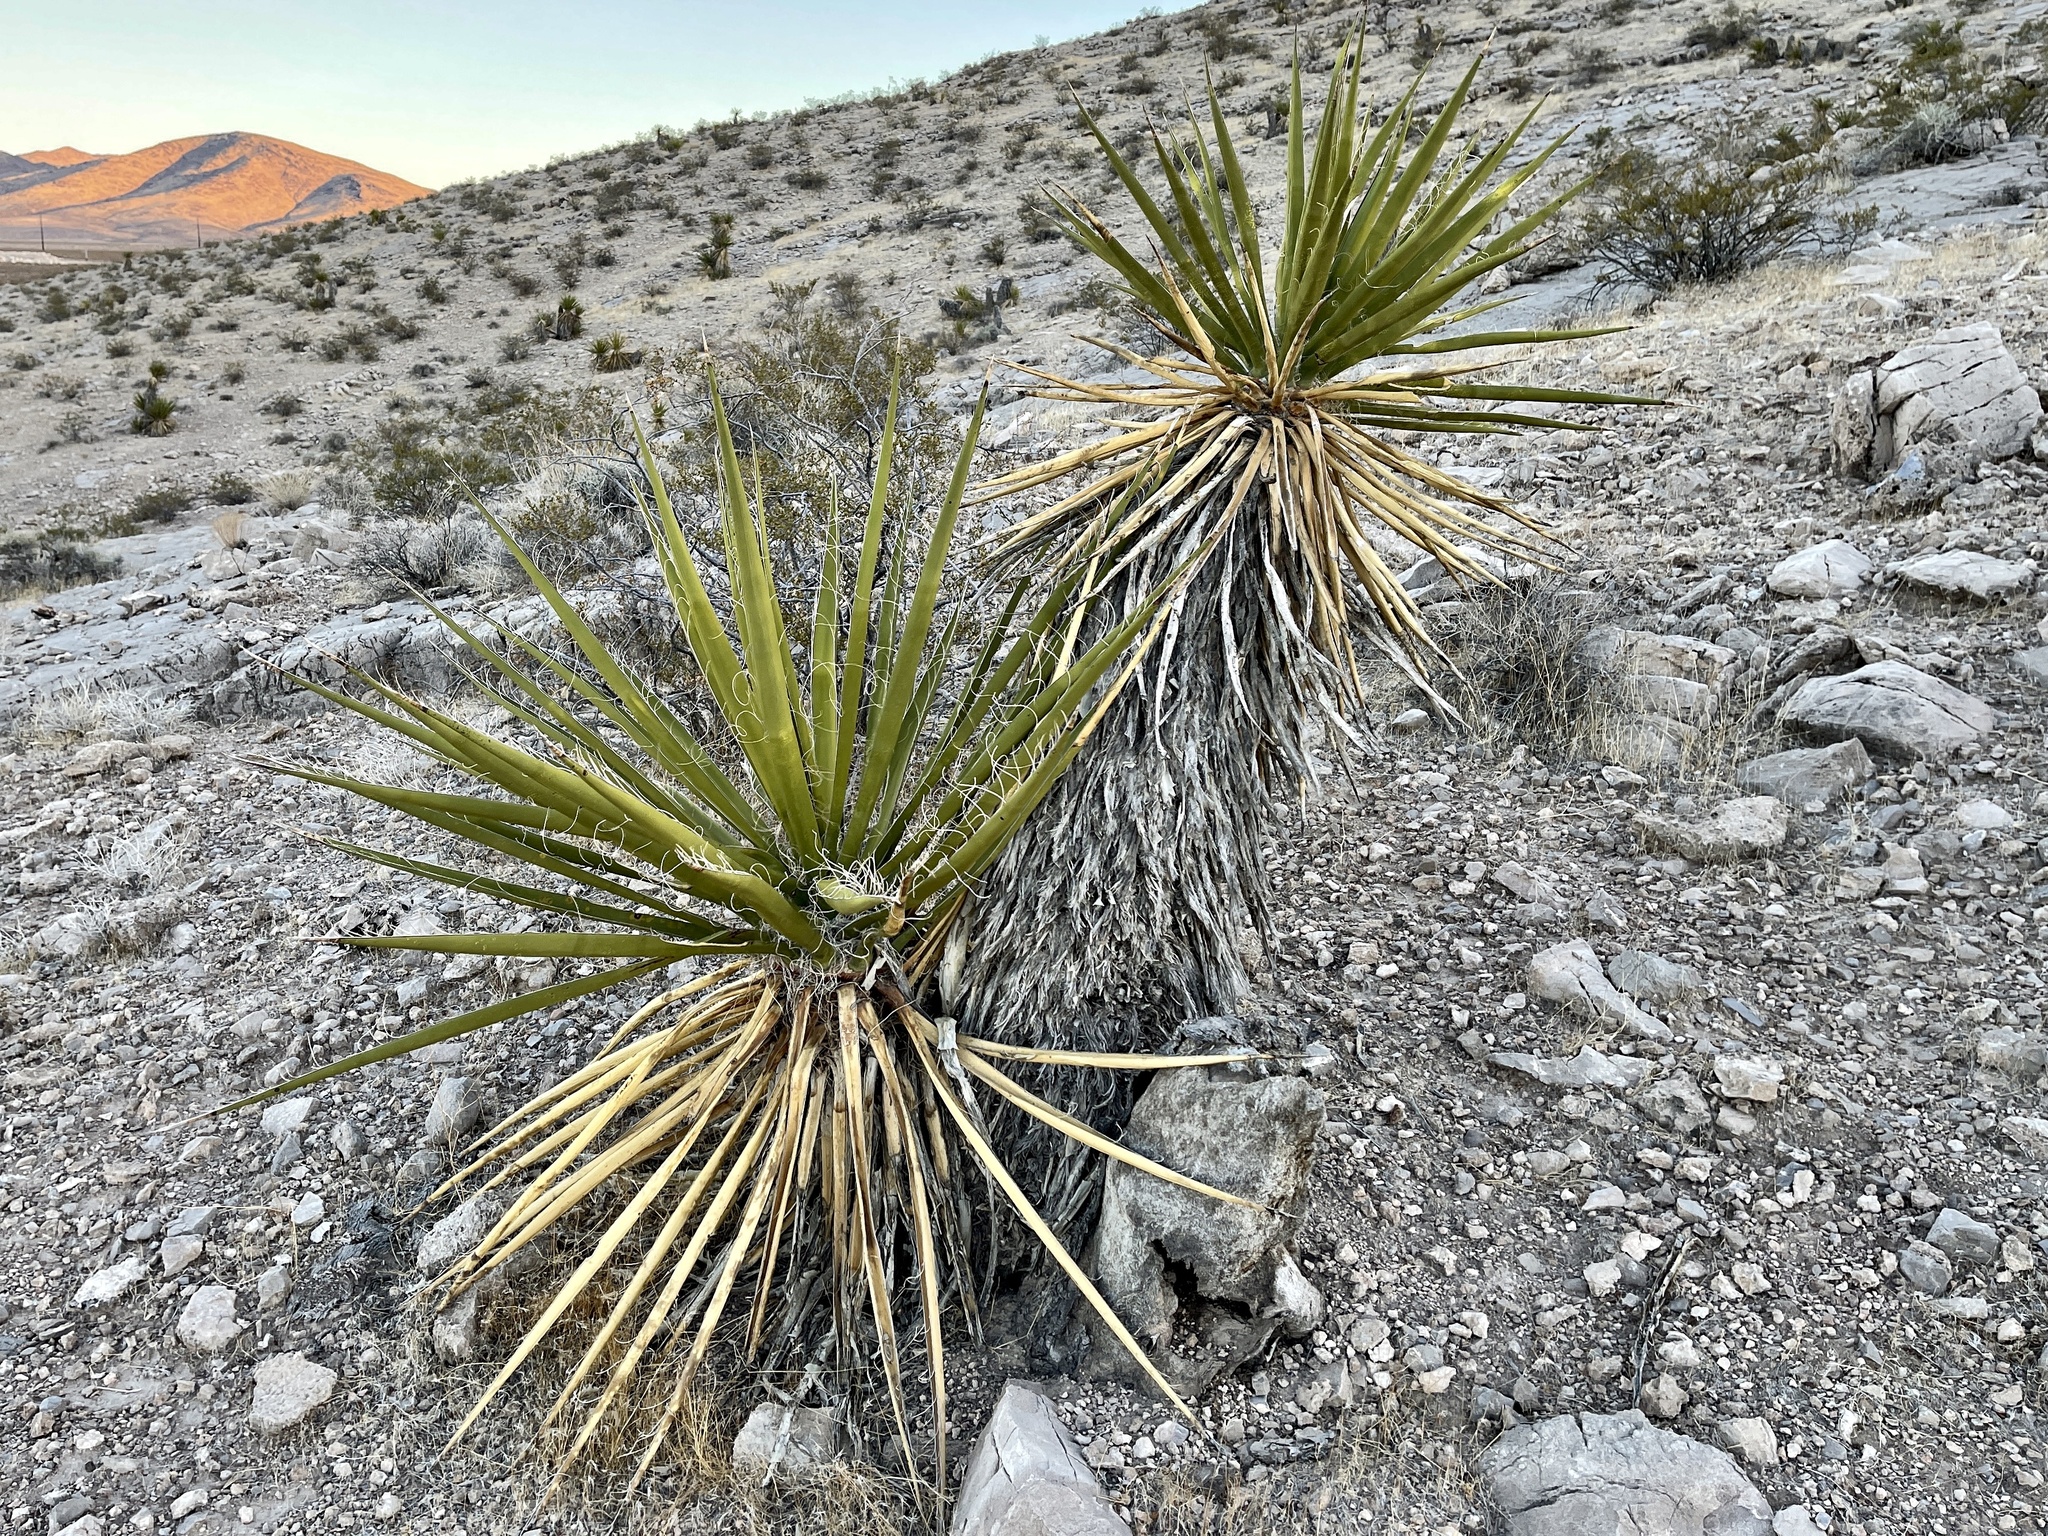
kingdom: Plantae
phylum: Tracheophyta
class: Liliopsida
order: Asparagales
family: Asparagaceae
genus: Yucca
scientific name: Yucca schidigera
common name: Mojave yucca
